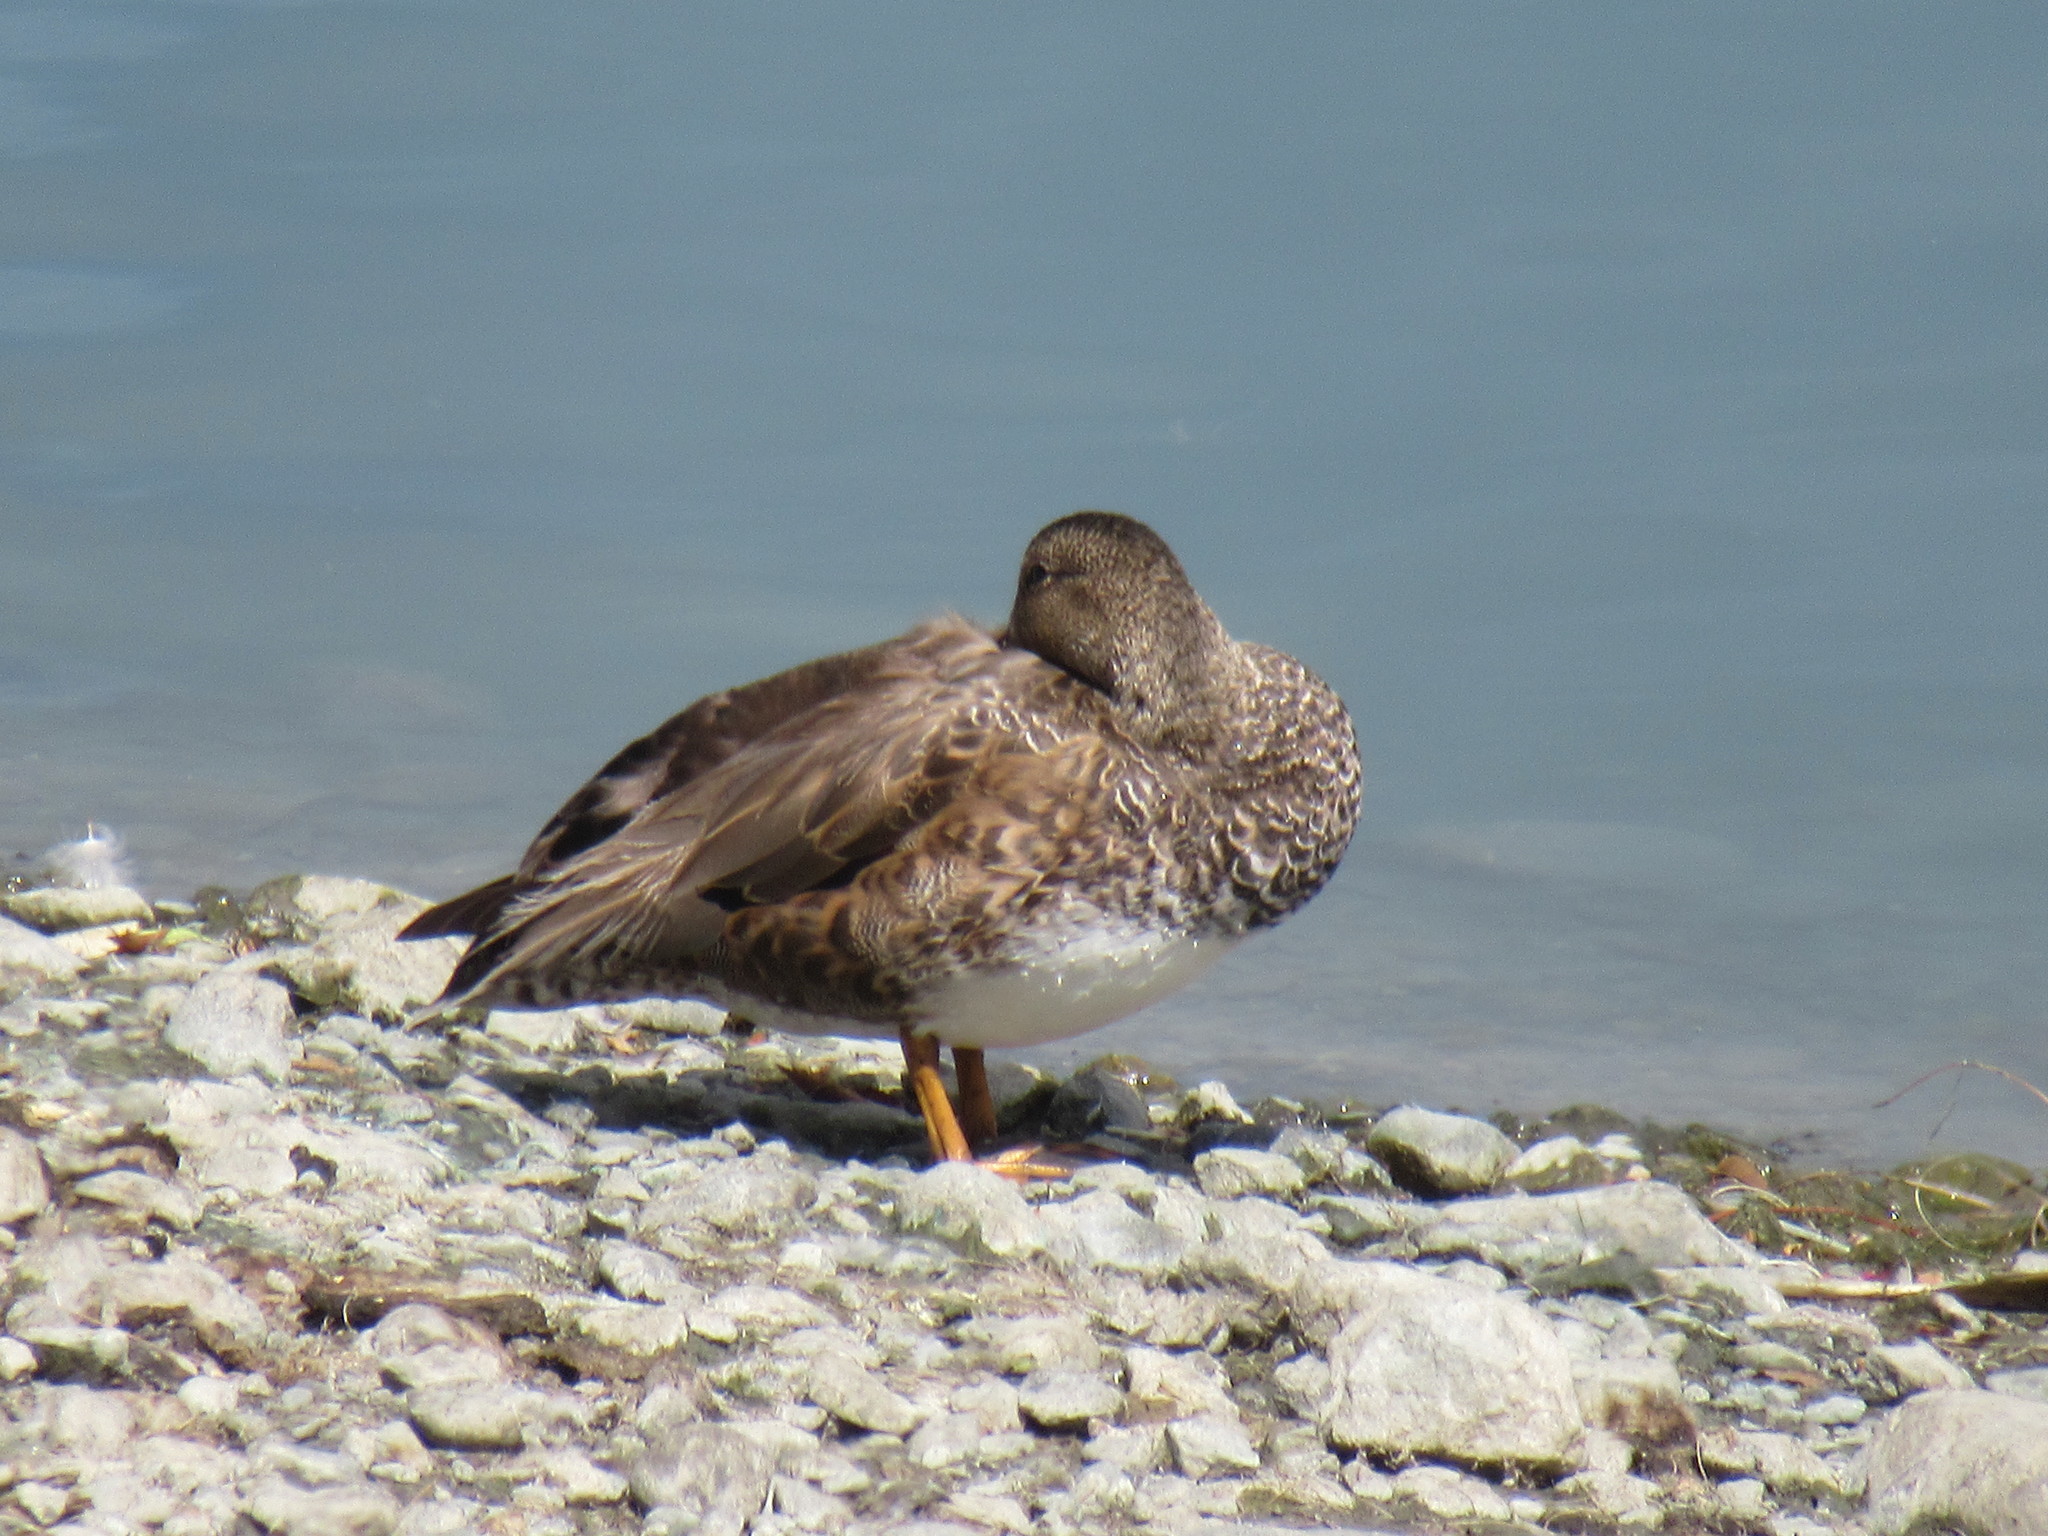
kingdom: Animalia
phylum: Chordata
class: Aves
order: Anseriformes
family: Anatidae
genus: Mareca
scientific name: Mareca strepera
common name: Gadwall
